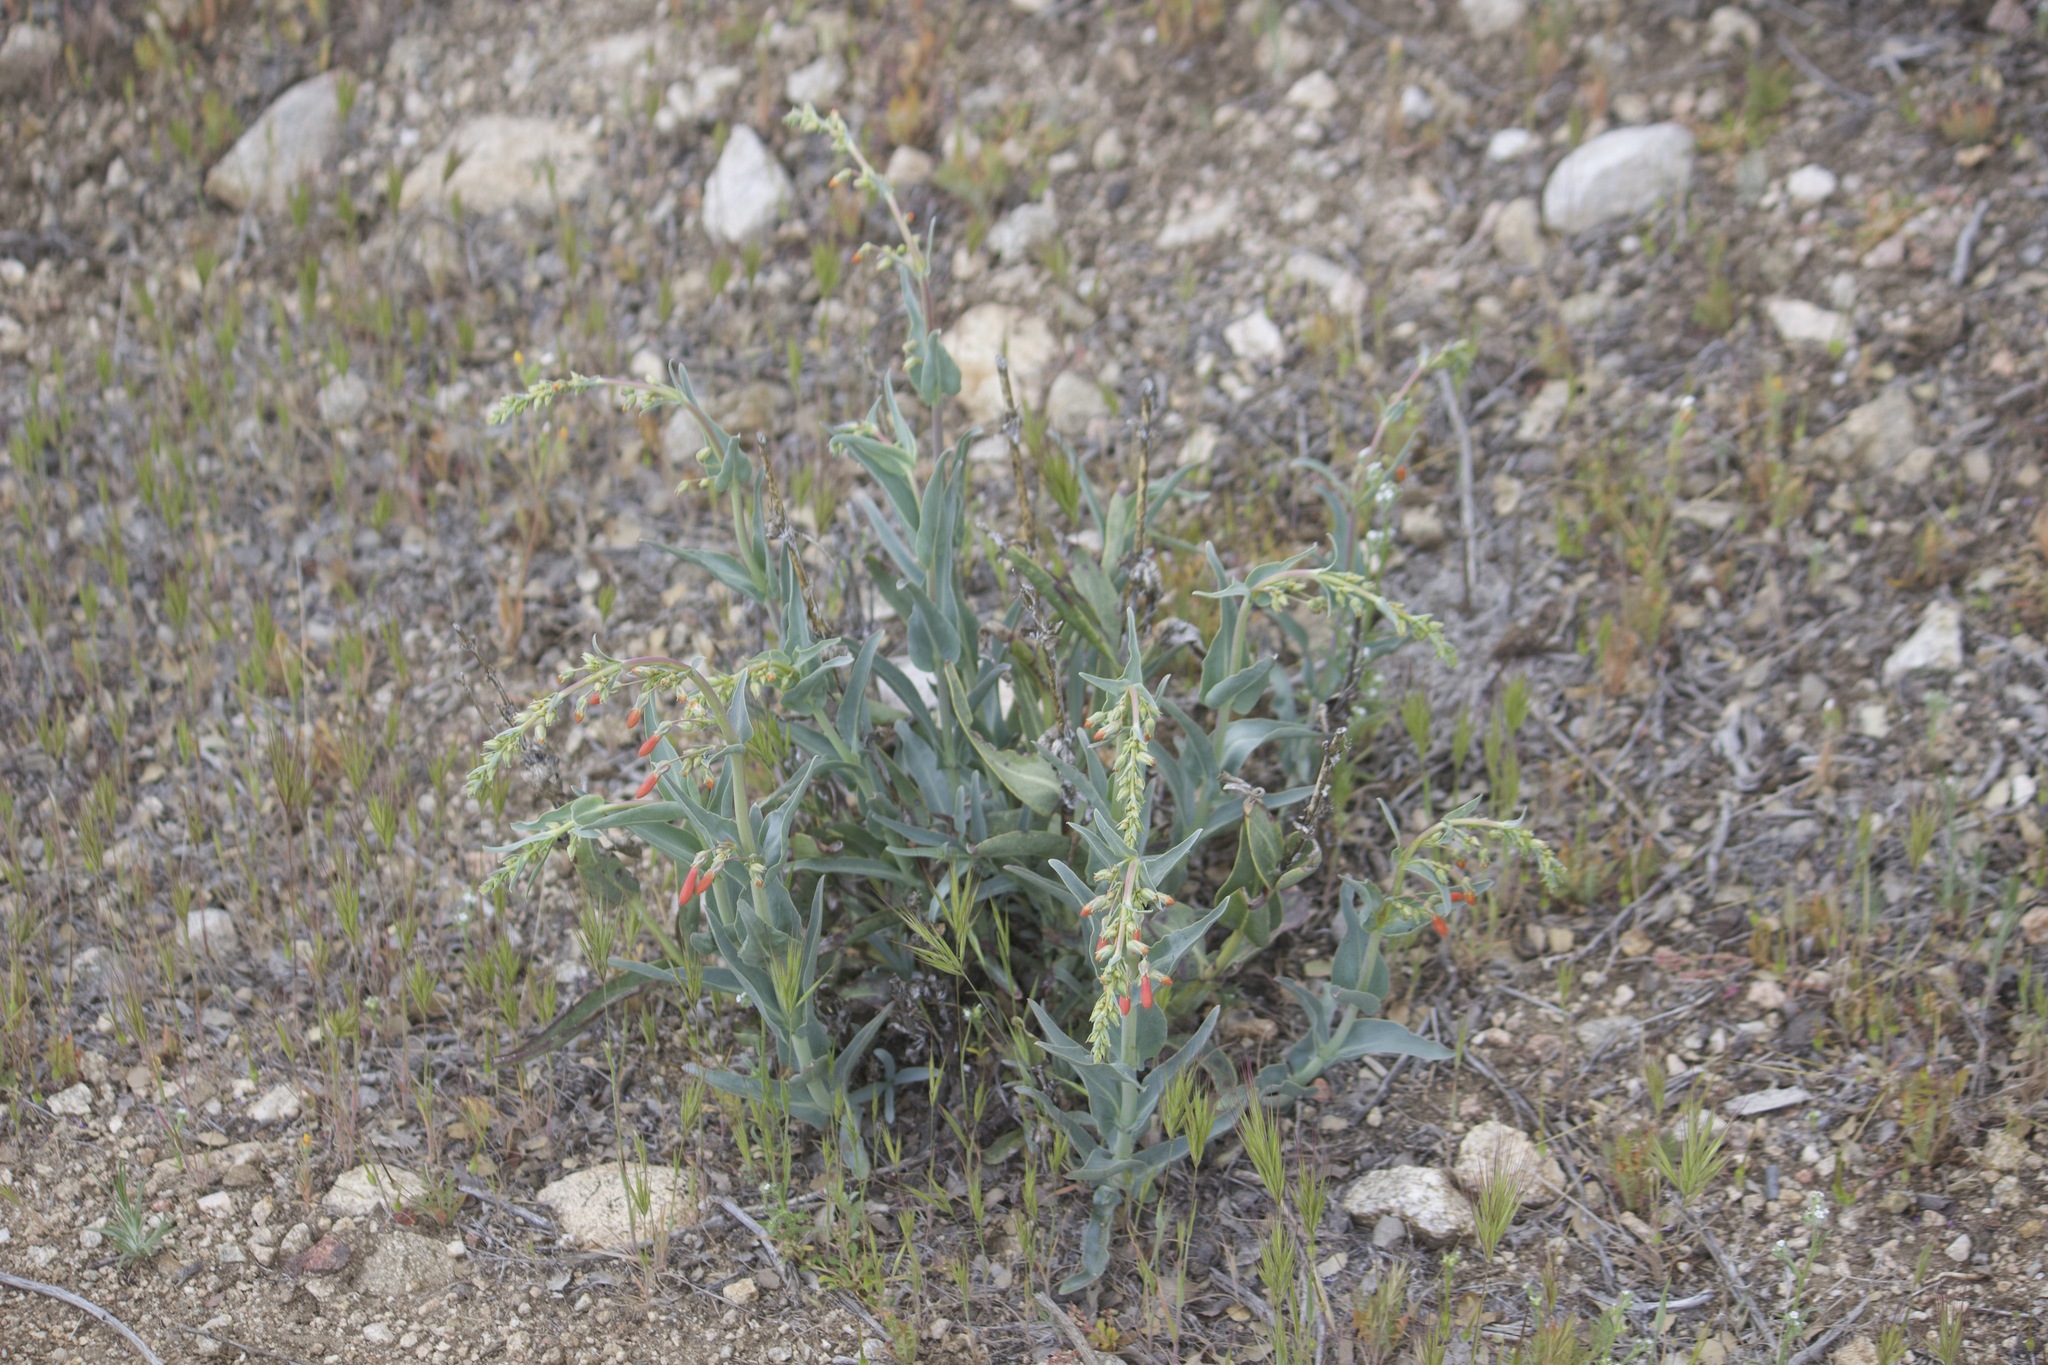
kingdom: Plantae
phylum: Tracheophyta
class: Magnoliopsida
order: Lamiales
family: Plantaginaceae
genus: Penstemon
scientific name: Penstemon centranthifolius
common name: Scarlet bugler
